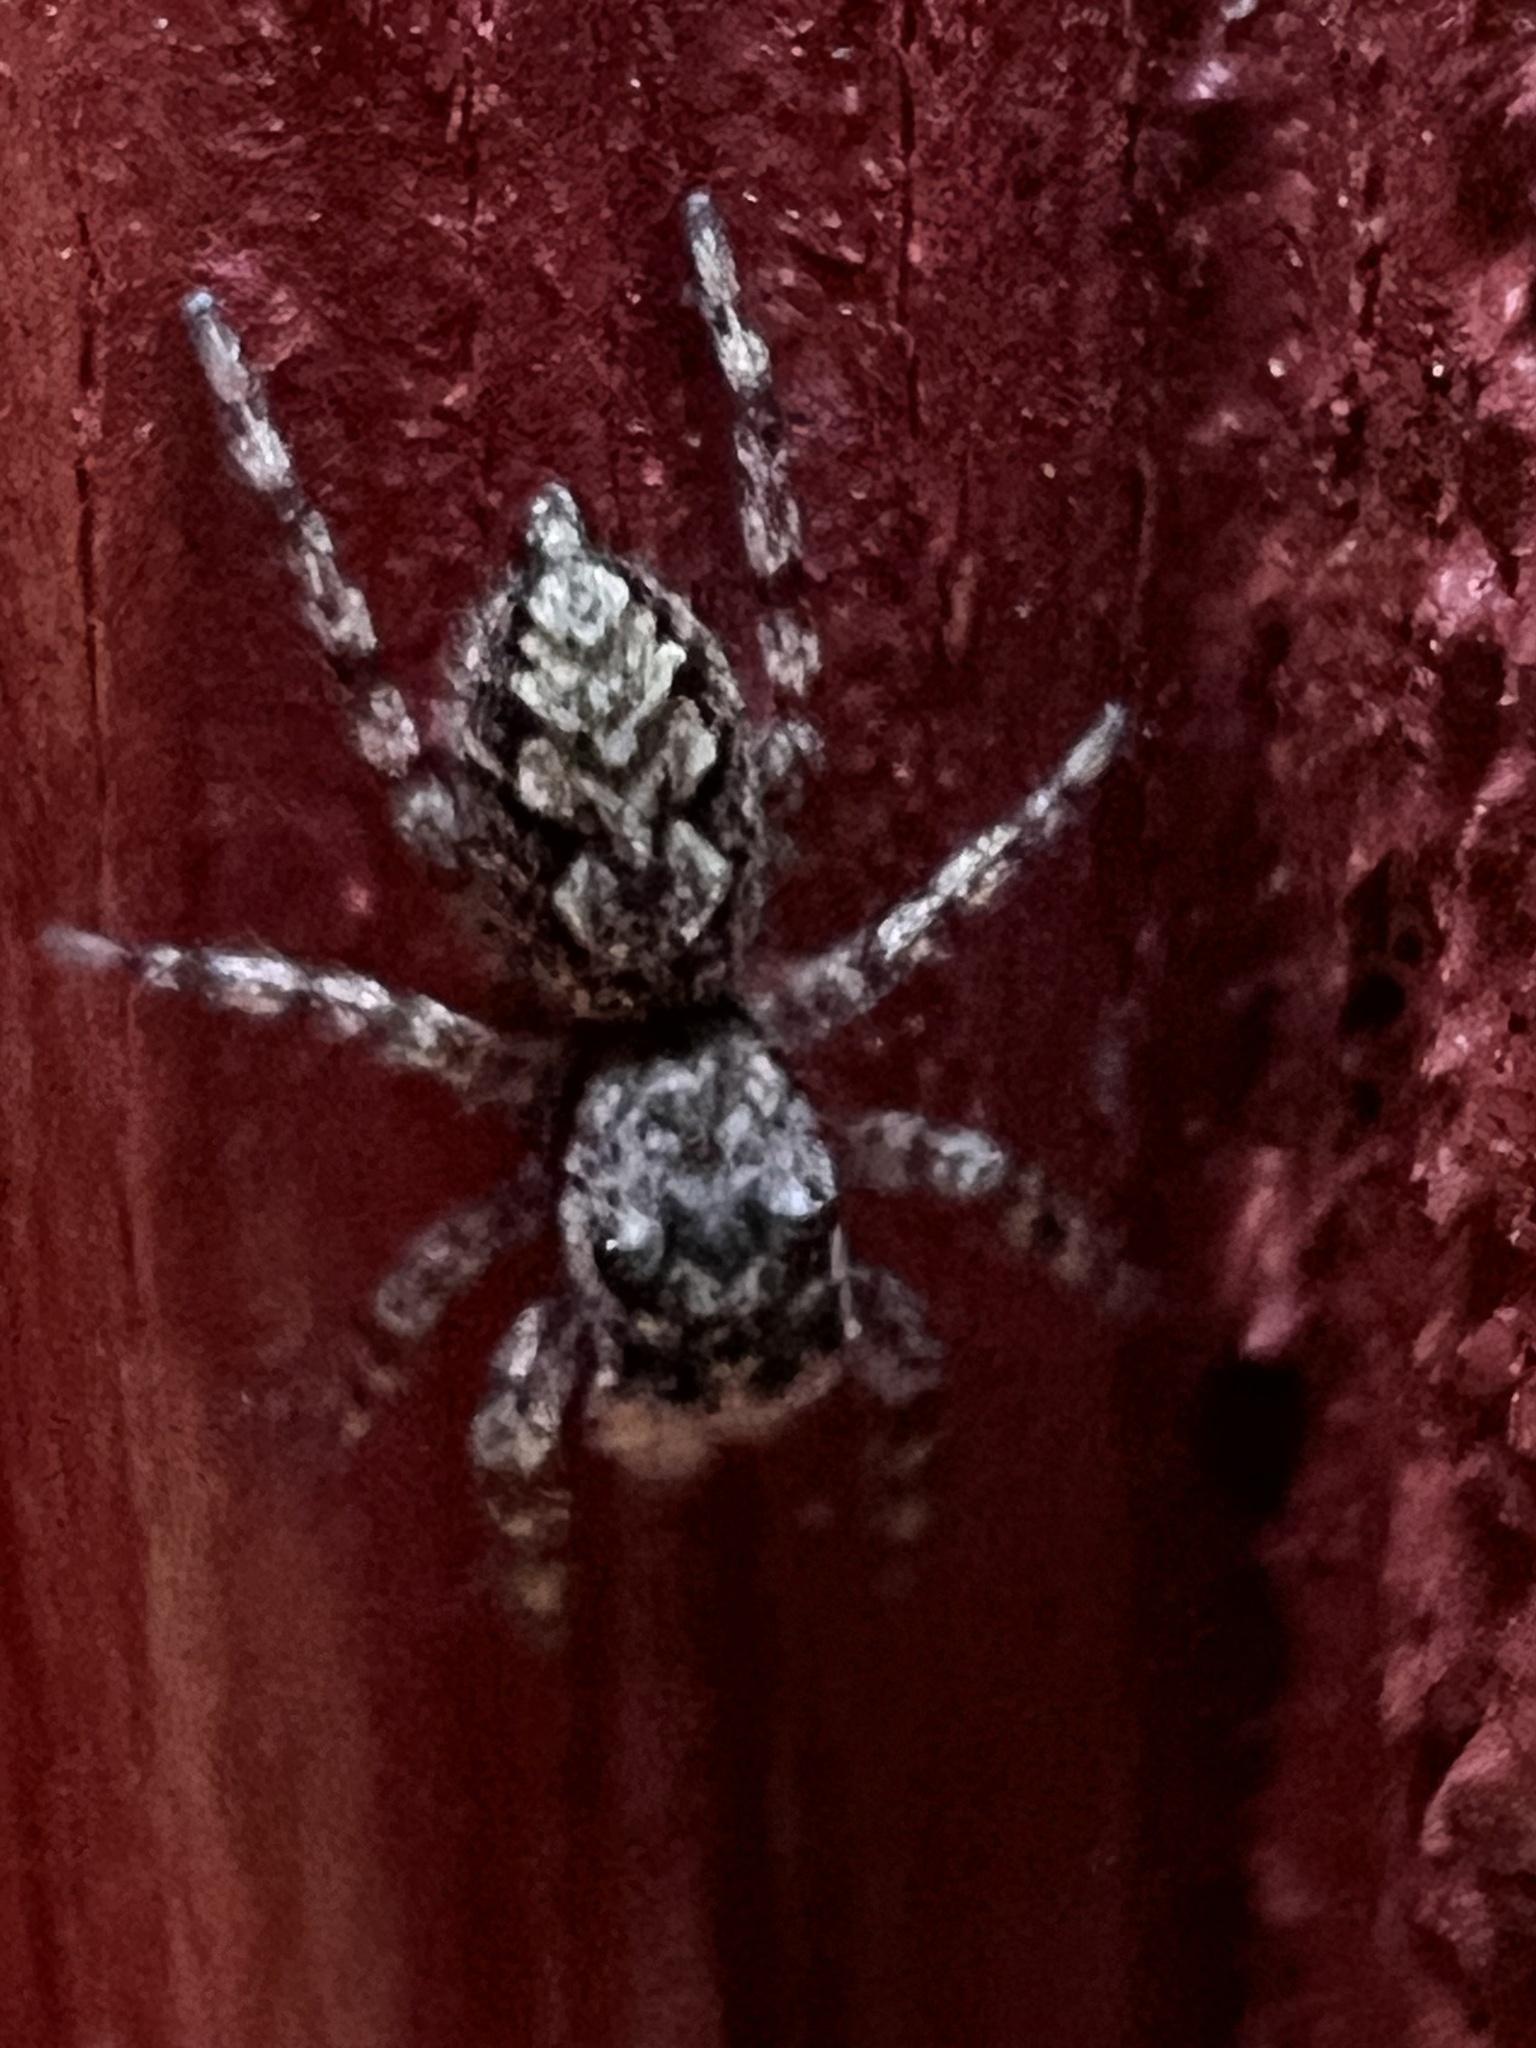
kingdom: Animalia
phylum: Arthropoda
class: Arachnida
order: Araneae
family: Salticidae
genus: Platycryptus
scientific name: Platycryptus undatus
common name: Tan jumping spider
